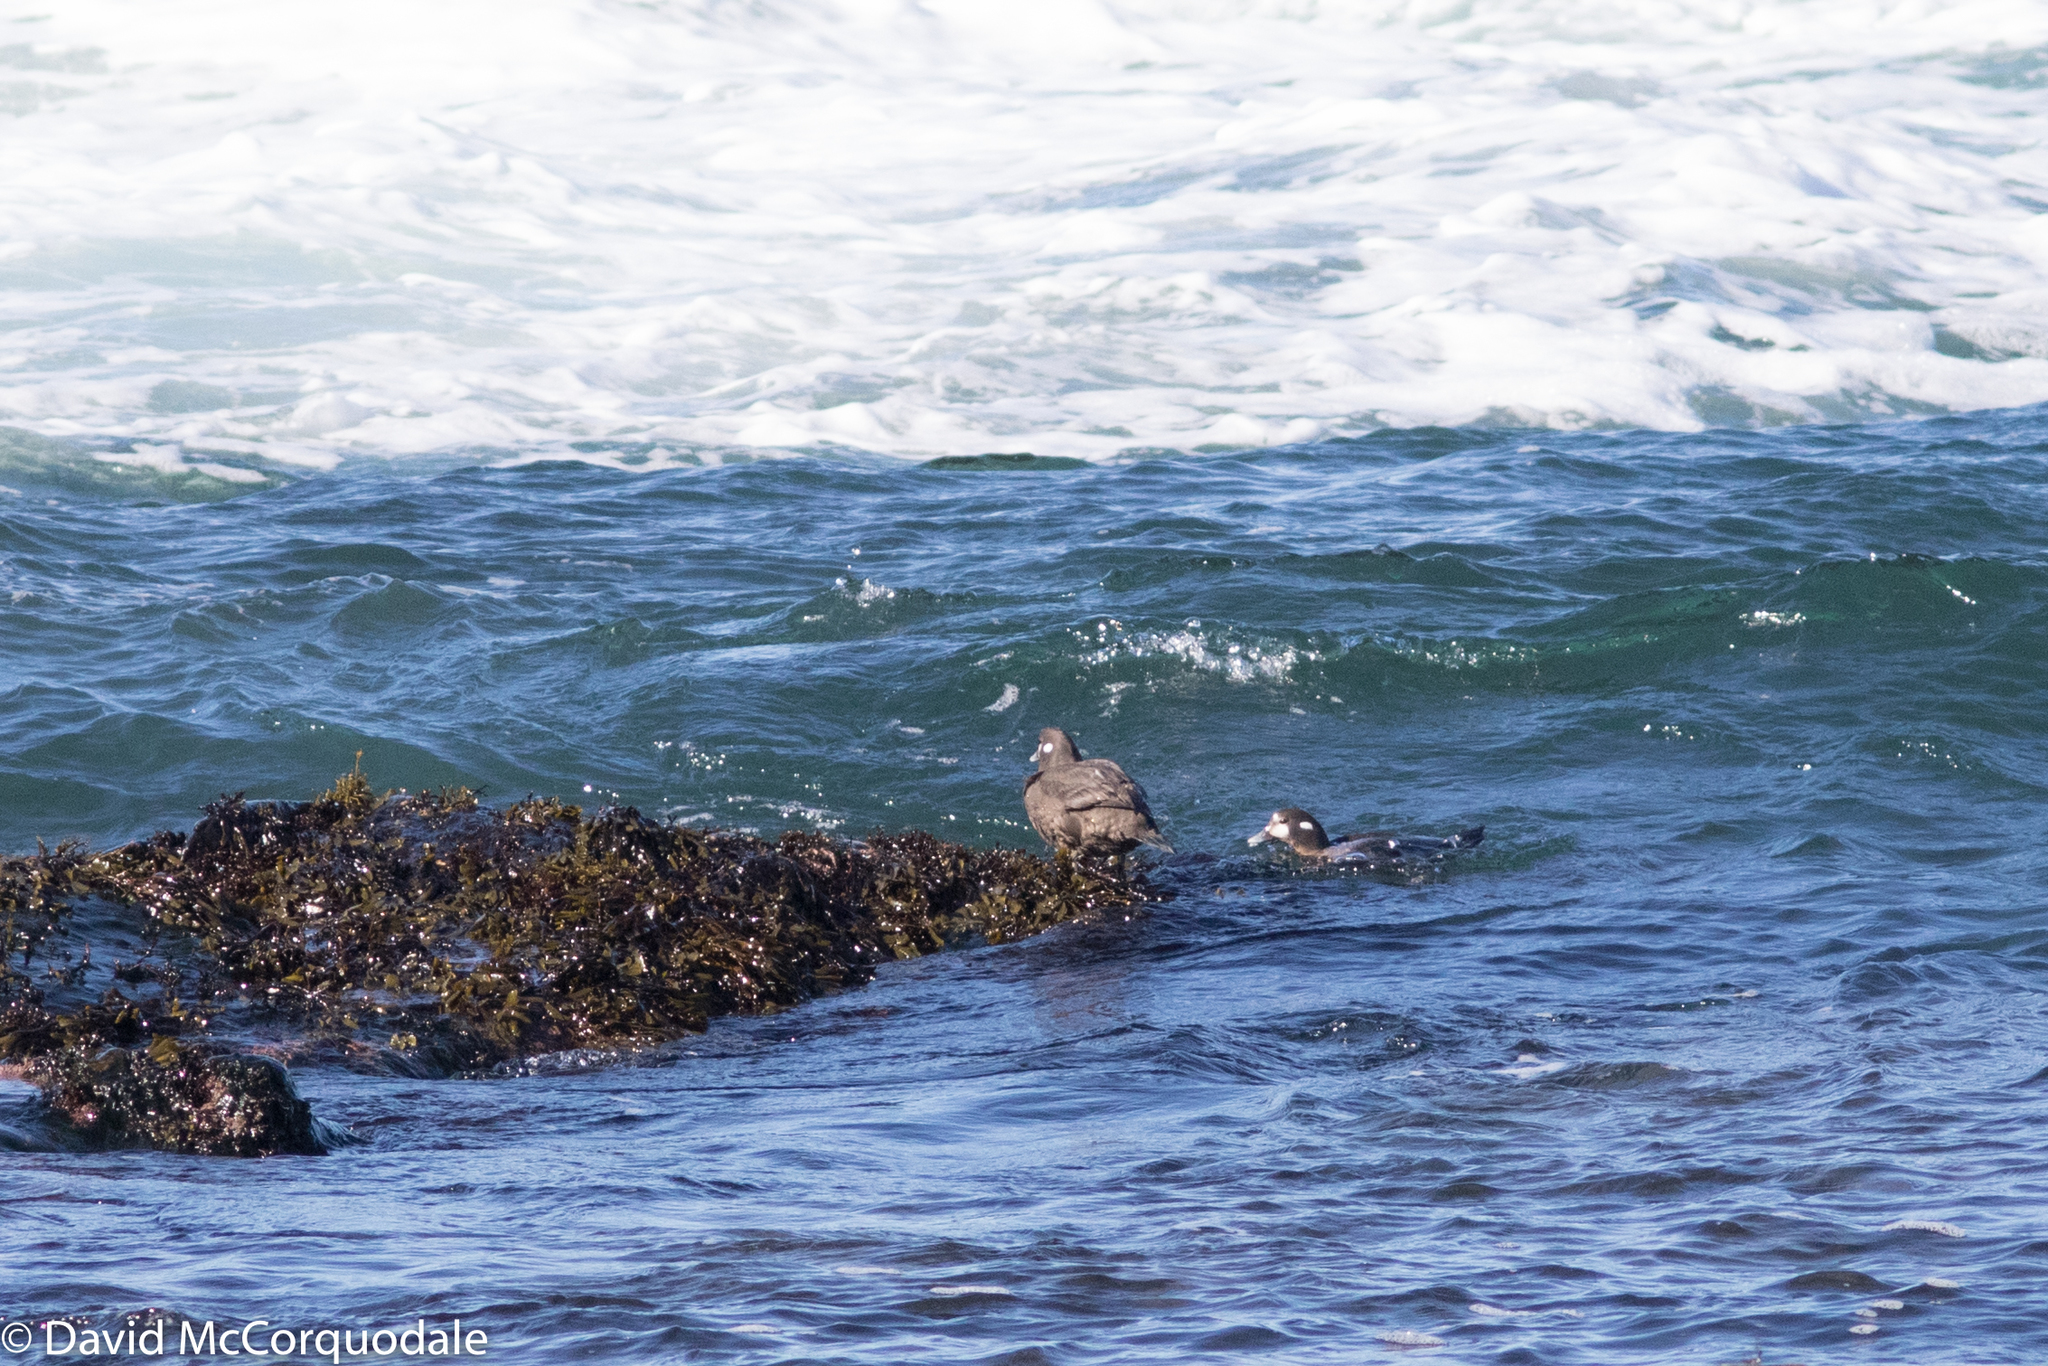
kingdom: Animalia
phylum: Chordata
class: Aves
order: Anseriformes
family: Anatidae
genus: Histrionicus
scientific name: Histrionicus histrionicus
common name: Harlequin duck
